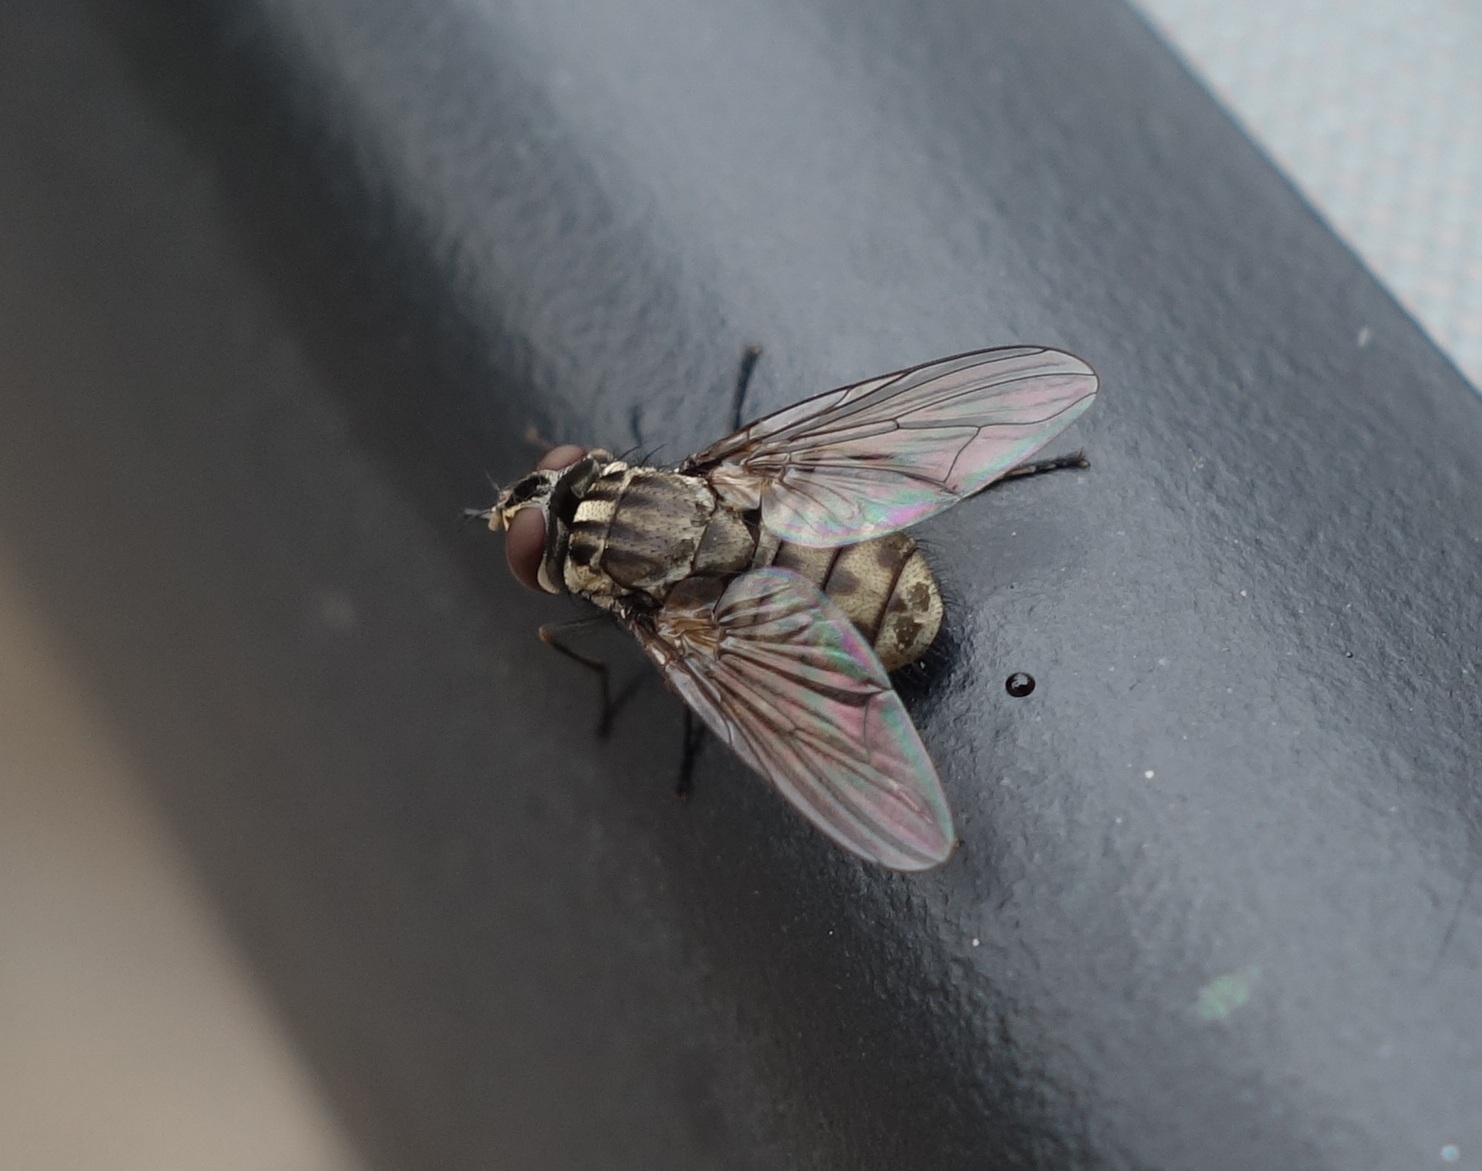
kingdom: Animalia
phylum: Arthropoda
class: Insecta
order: Diptera
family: Muscidae
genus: Stomoxys
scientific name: Stomoxys calcitrans
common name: Stable fly
